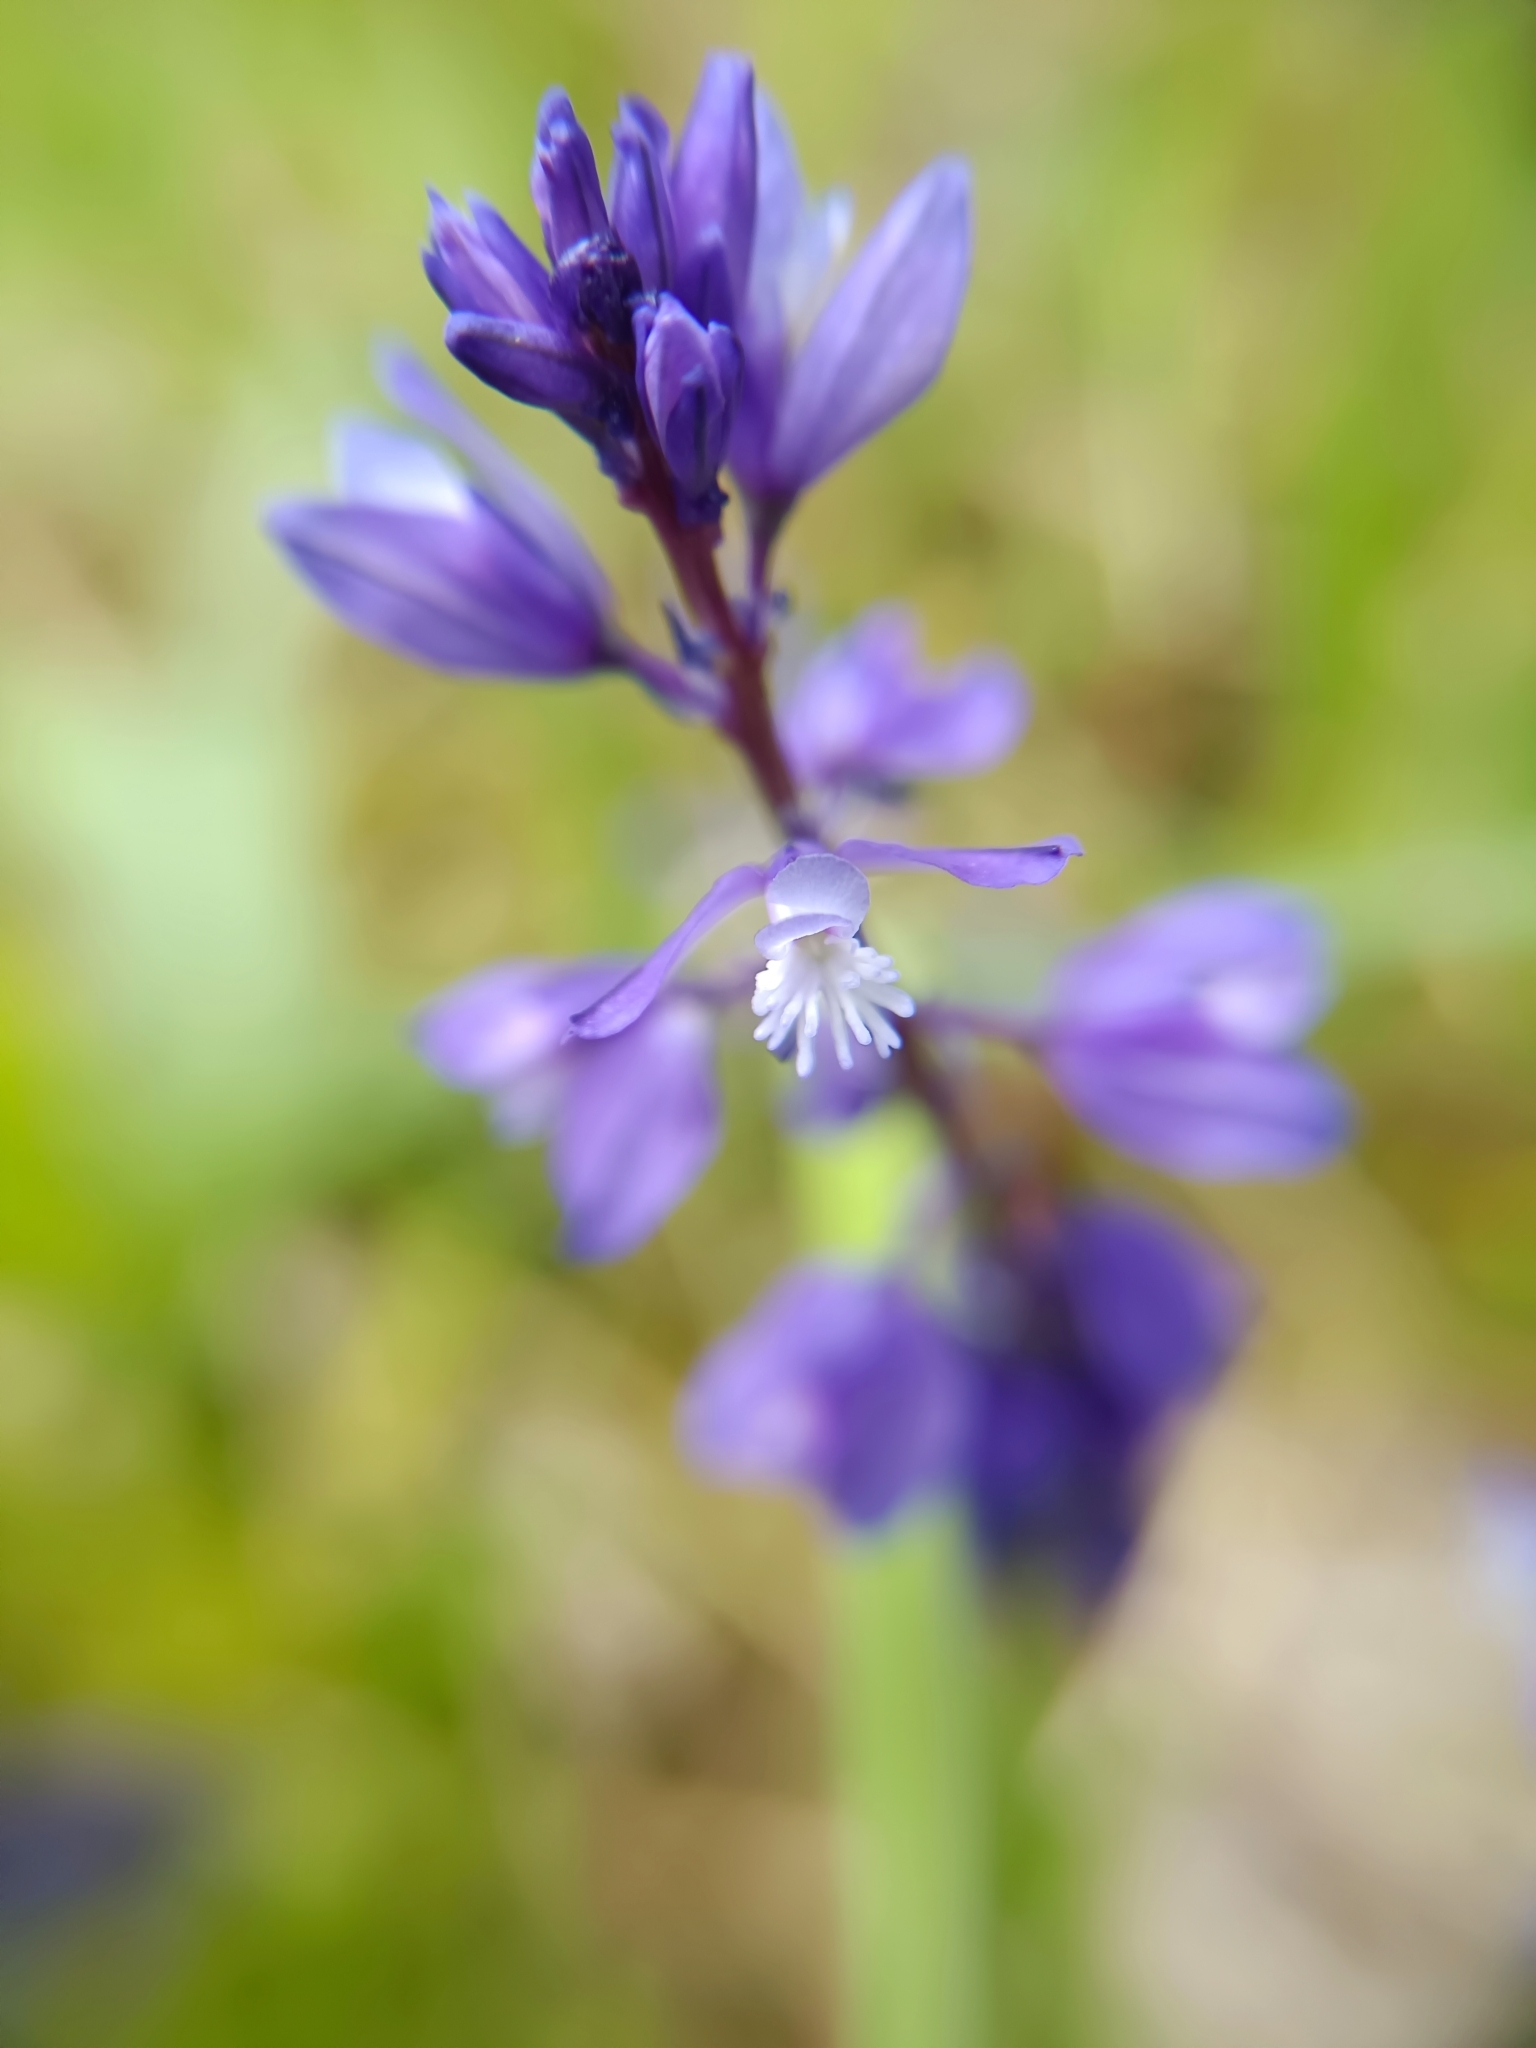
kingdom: Plantae
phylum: Tracheophyta
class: Magnoliopsida
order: Fabales
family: Polygalaceae
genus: Polygala
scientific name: Polygala amara
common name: Milkwort
